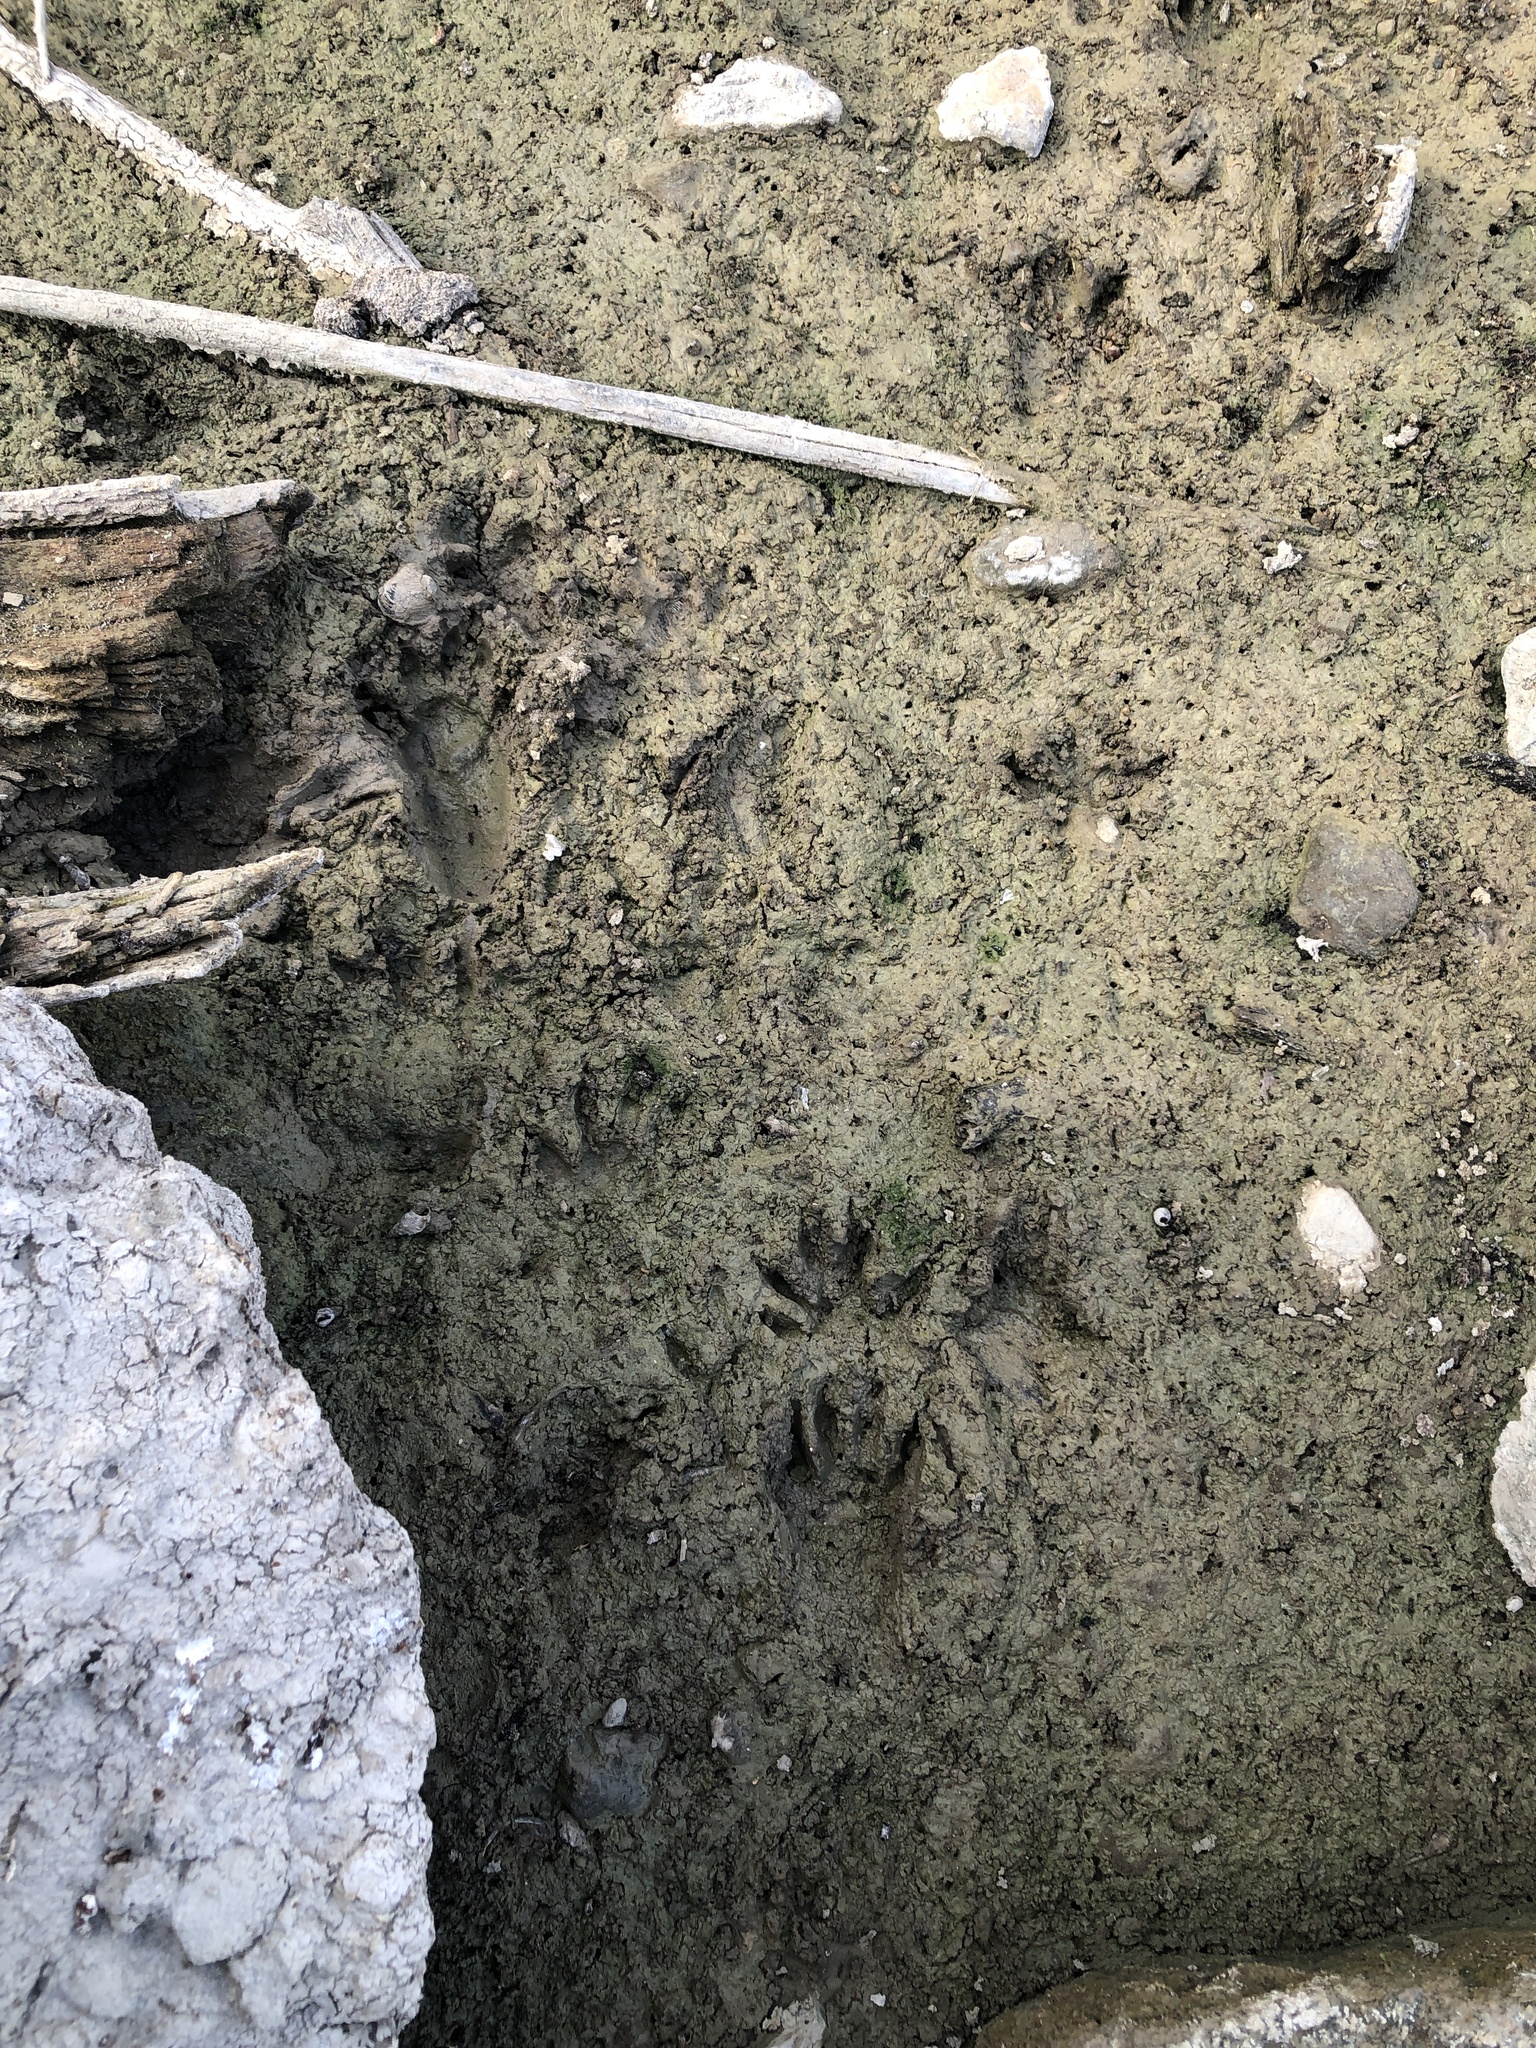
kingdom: Animalia
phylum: Chordata
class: Mammalia
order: Carnivora
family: Procyonidae
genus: Procyon
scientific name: Procyon lotor
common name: Raccoon
